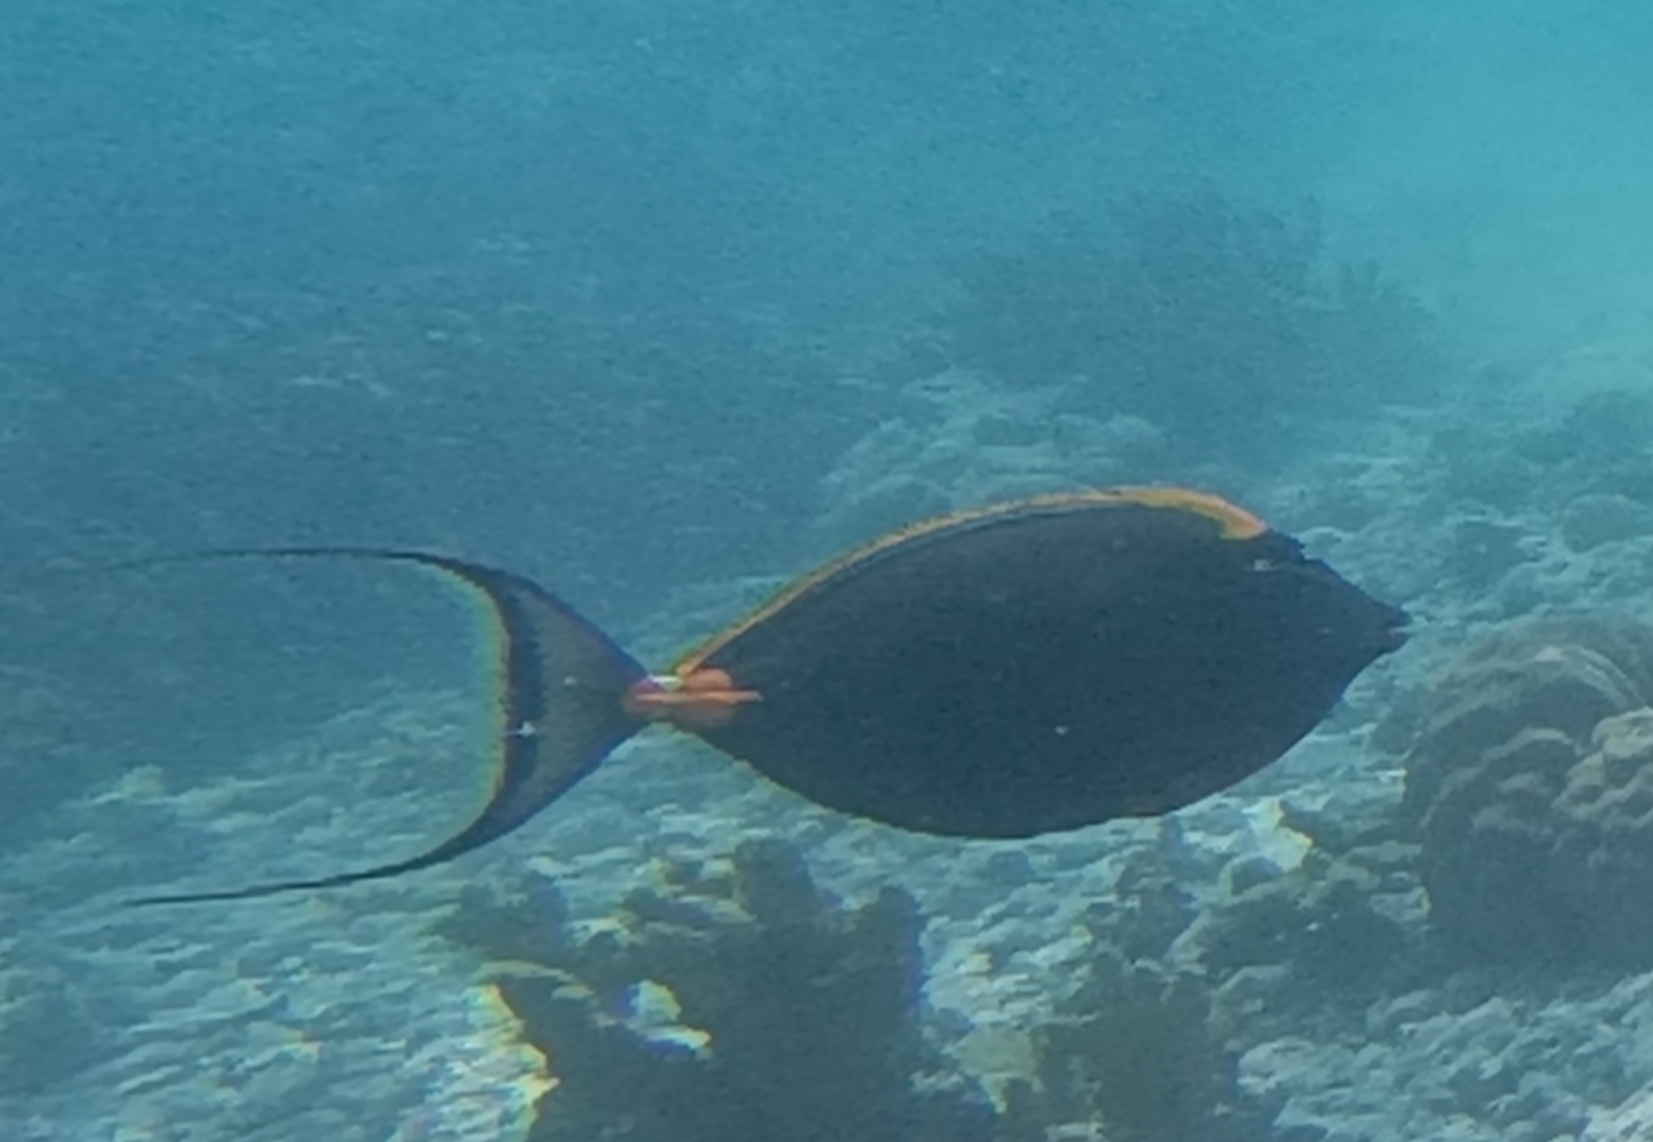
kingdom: Animalia
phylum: Chordata
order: Perciformes
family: Acanthuridae
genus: Naso
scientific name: Naso elegans
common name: Orangespine unicornfish
